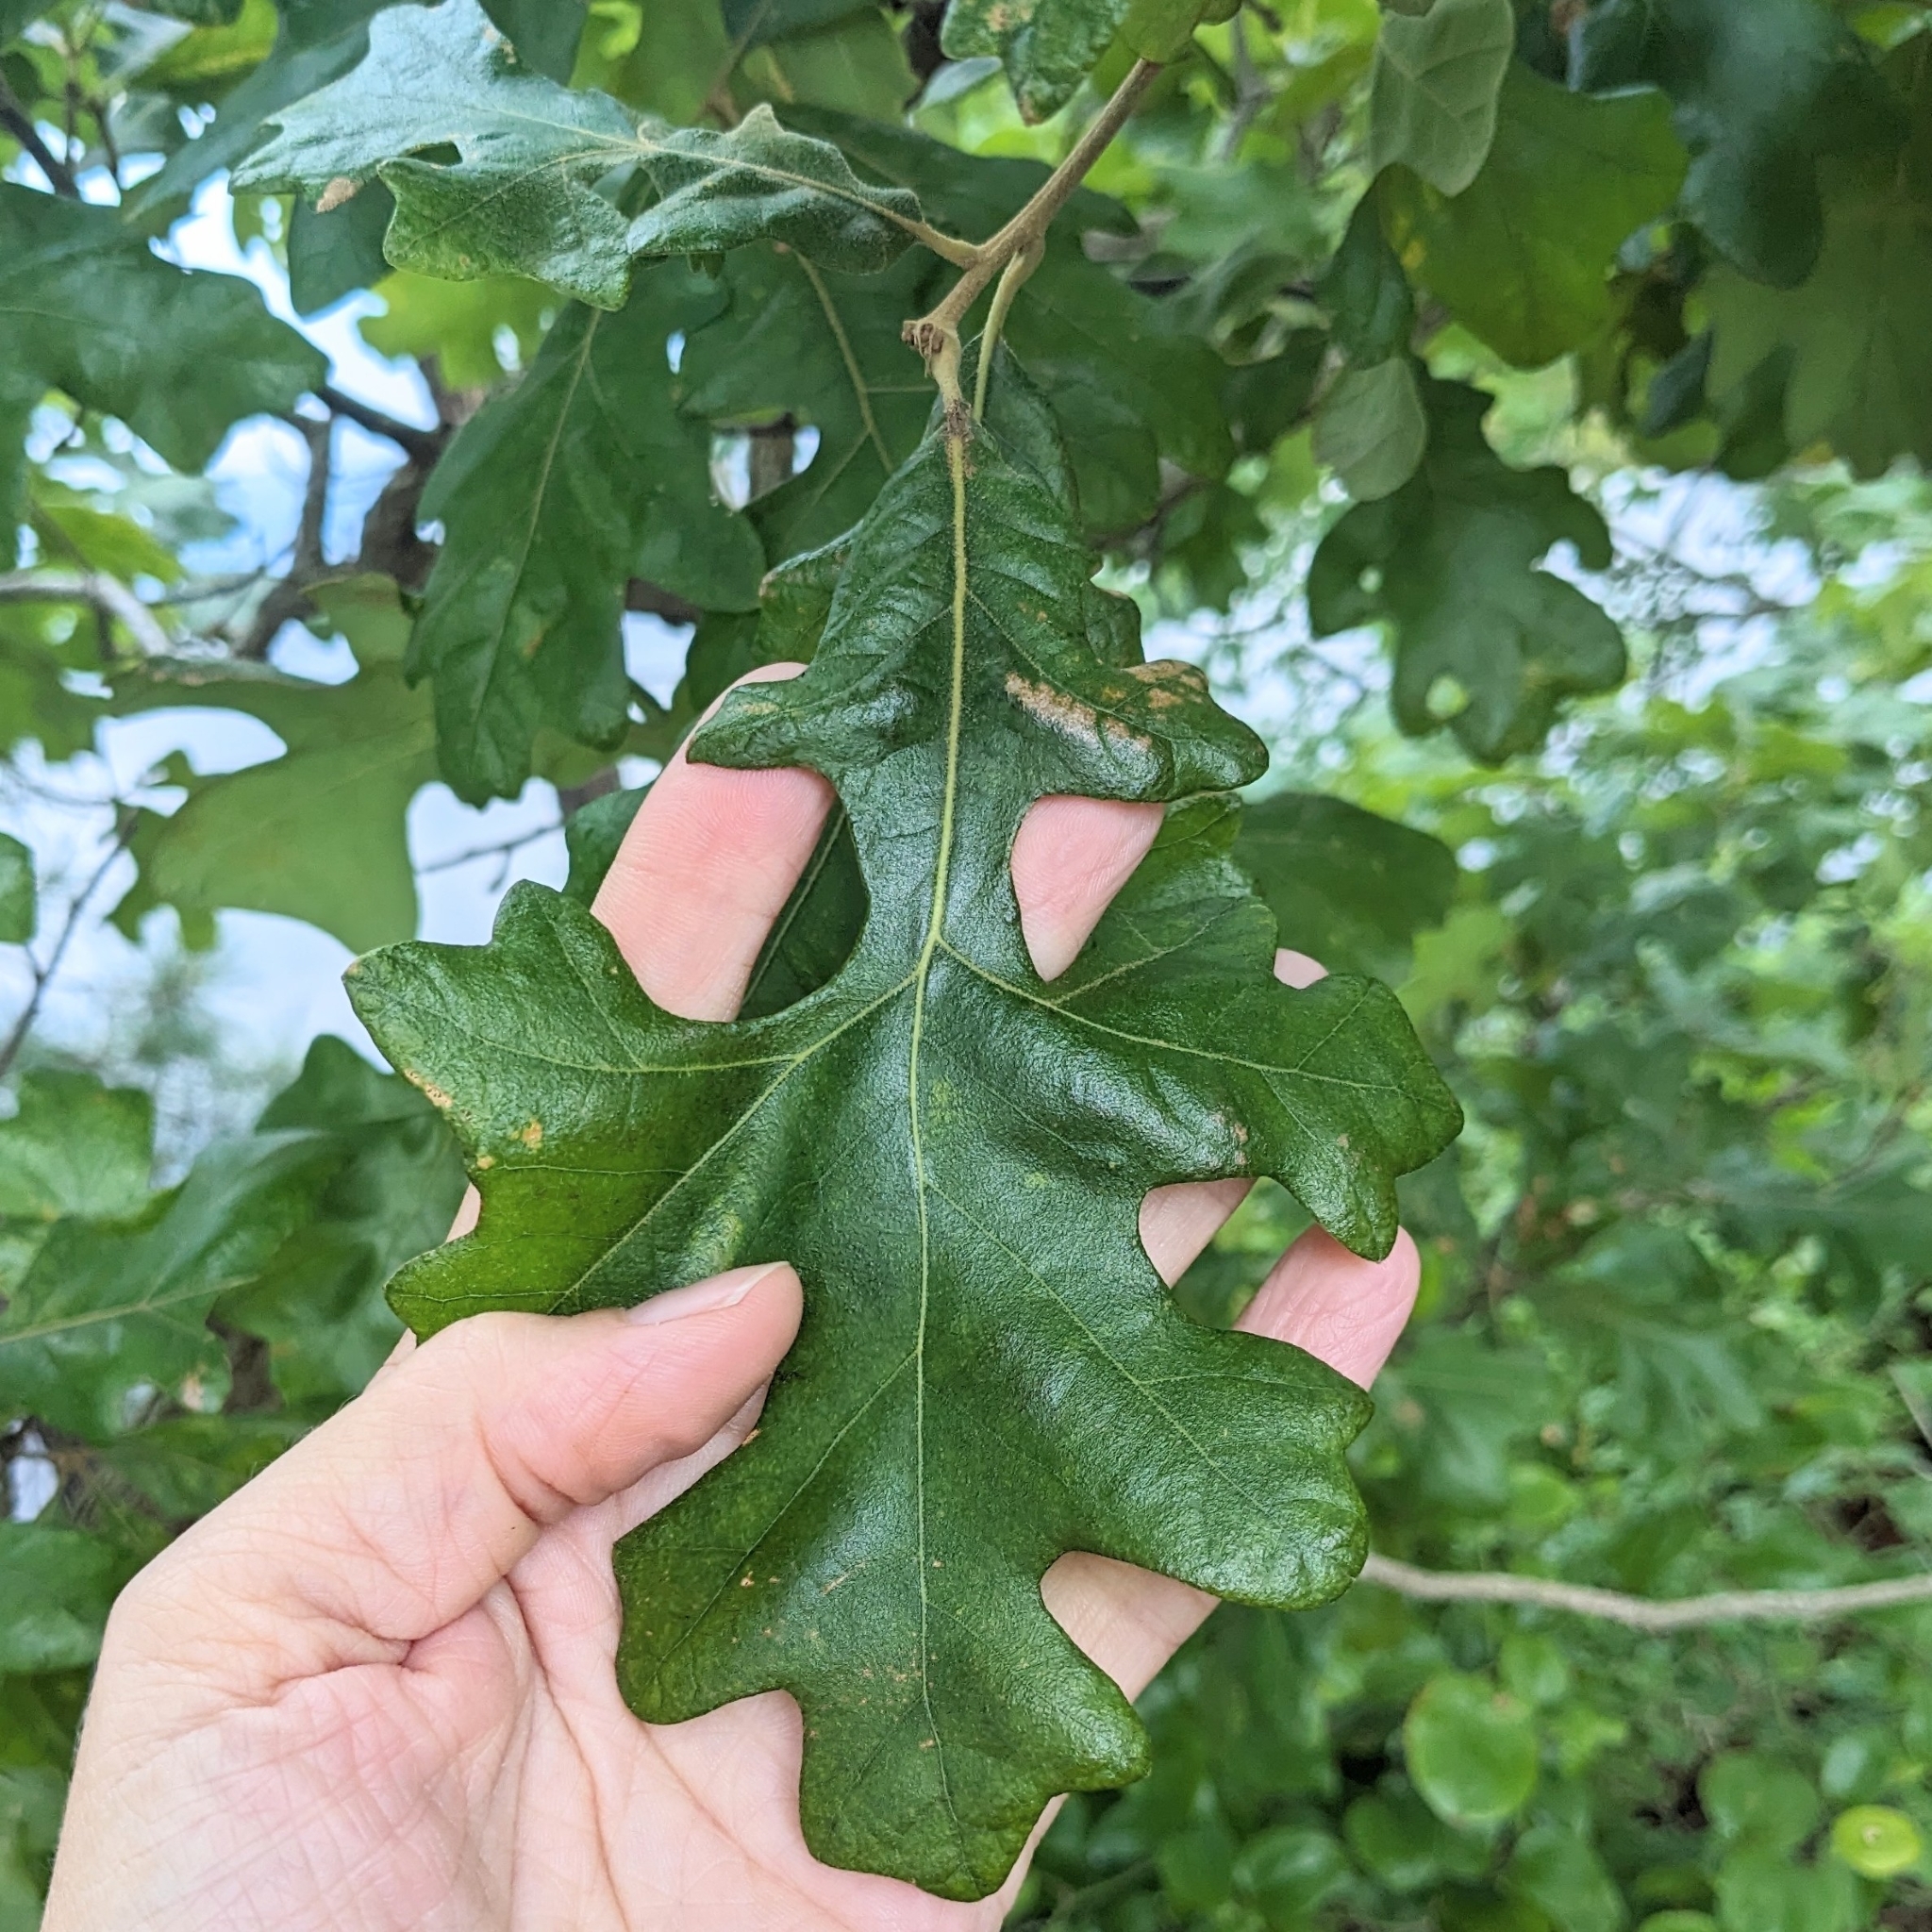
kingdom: Plantae
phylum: Tracheophyta
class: Magnoliopsida
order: Fagales
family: Fagaceae
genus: Quercus
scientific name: Quercus stellata
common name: Post oak
